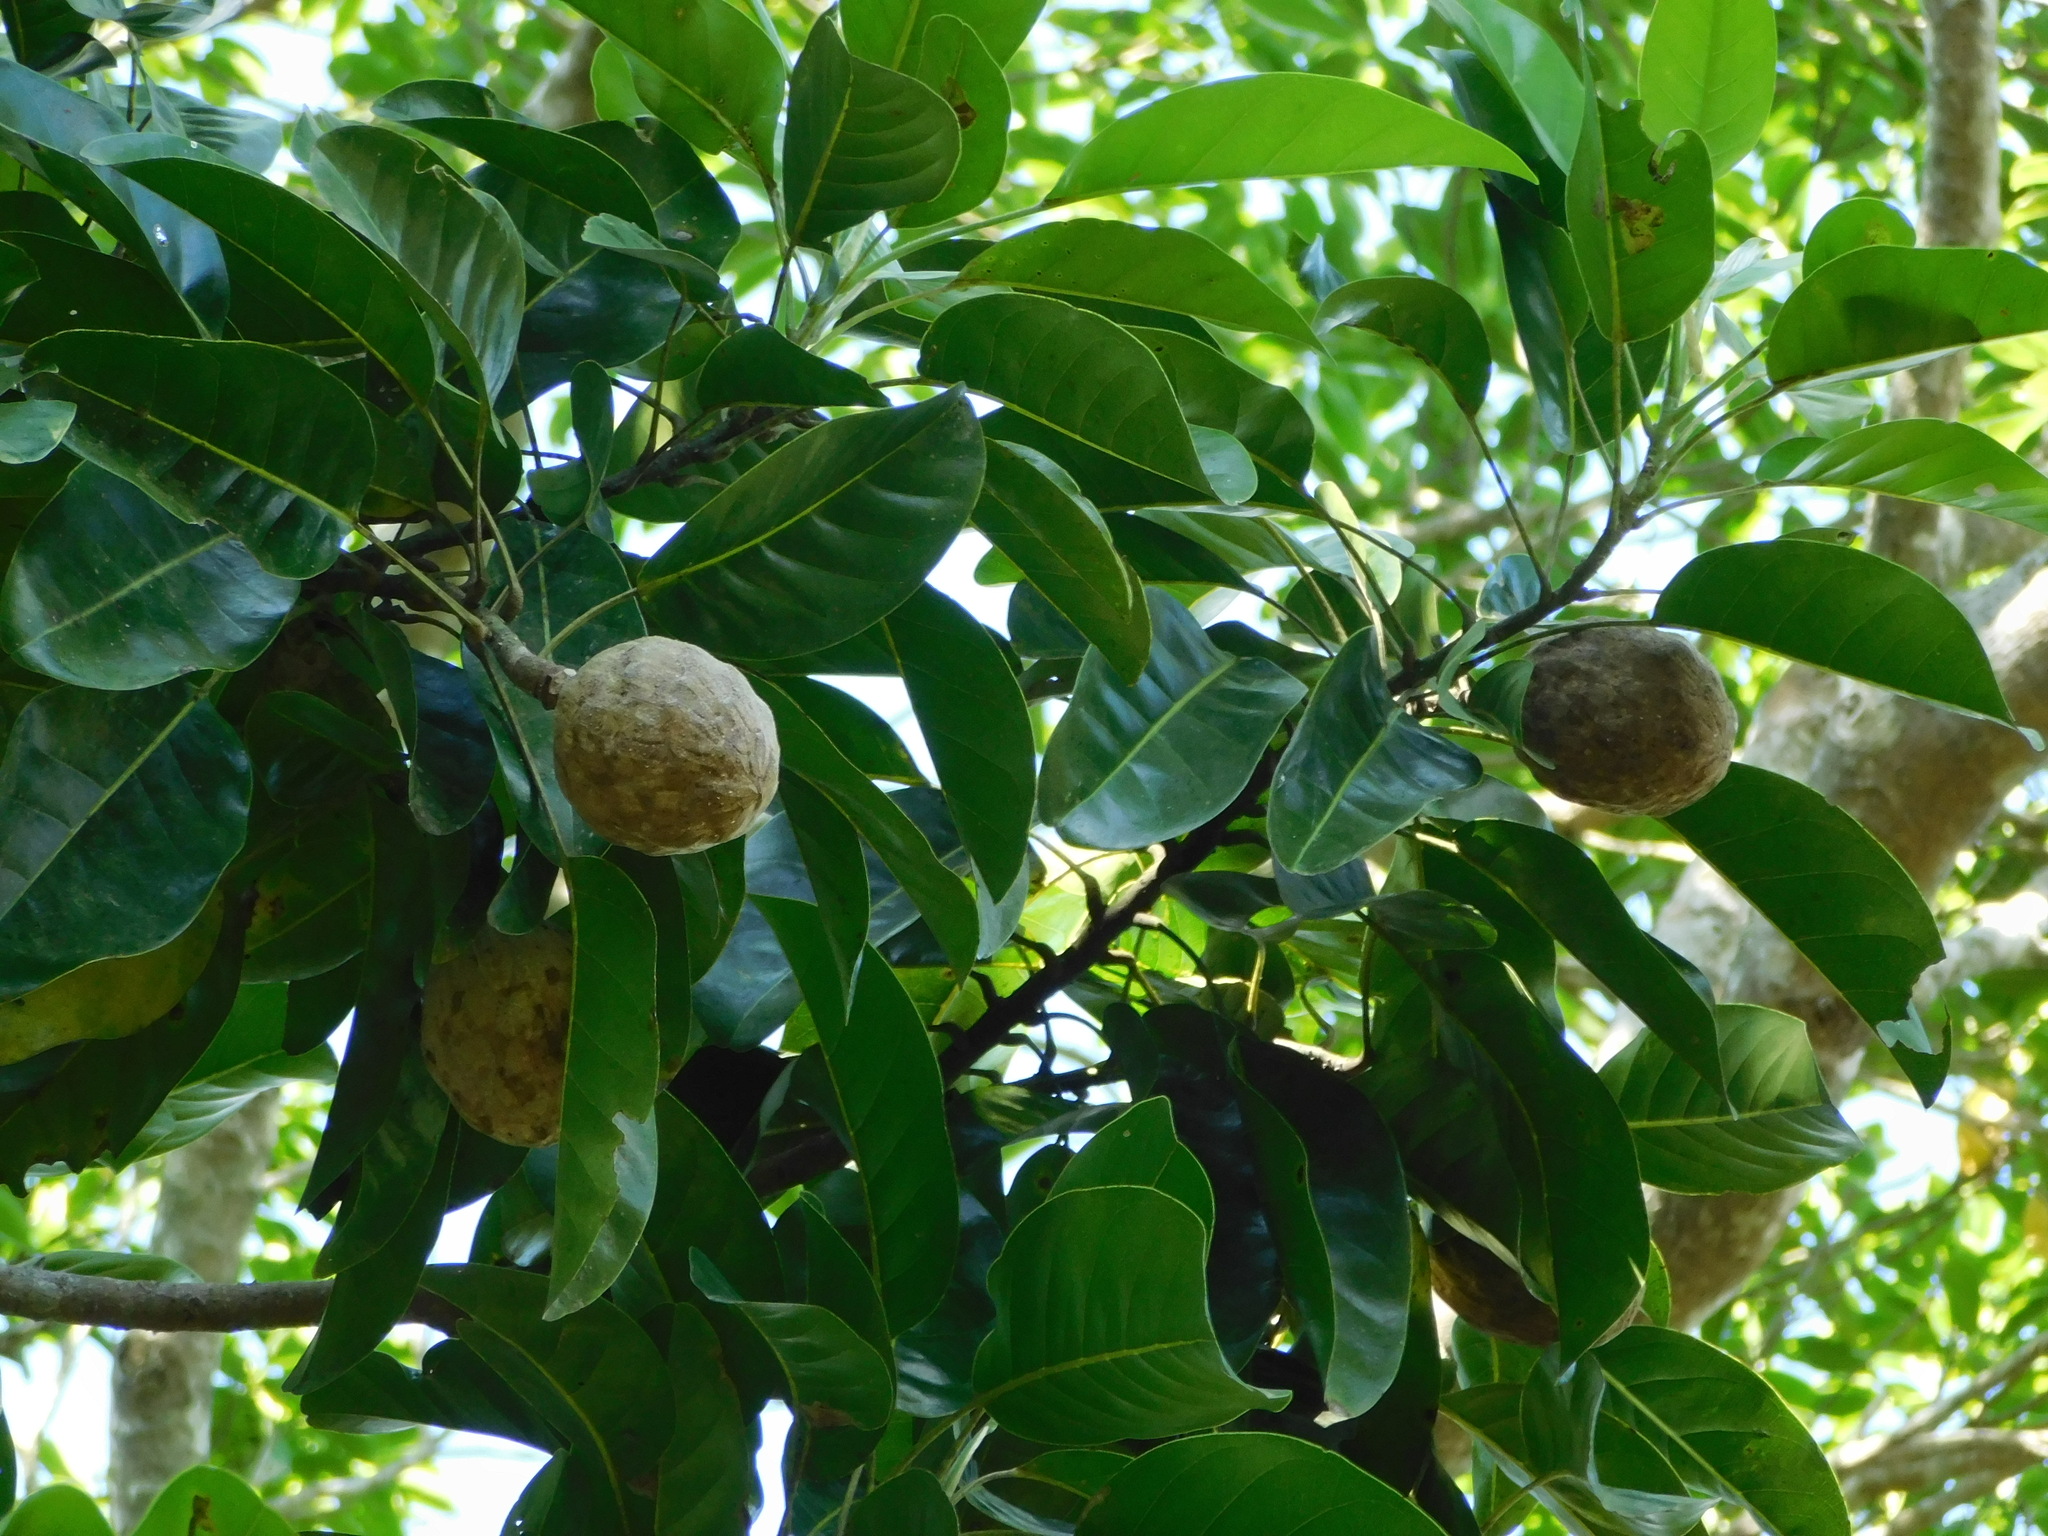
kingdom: Plantae
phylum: Tracheophyta
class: Magnoliopsida
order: Magnoliales
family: Magnoliaceae
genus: Magnolia
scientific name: Magnolia perezfarrerae
